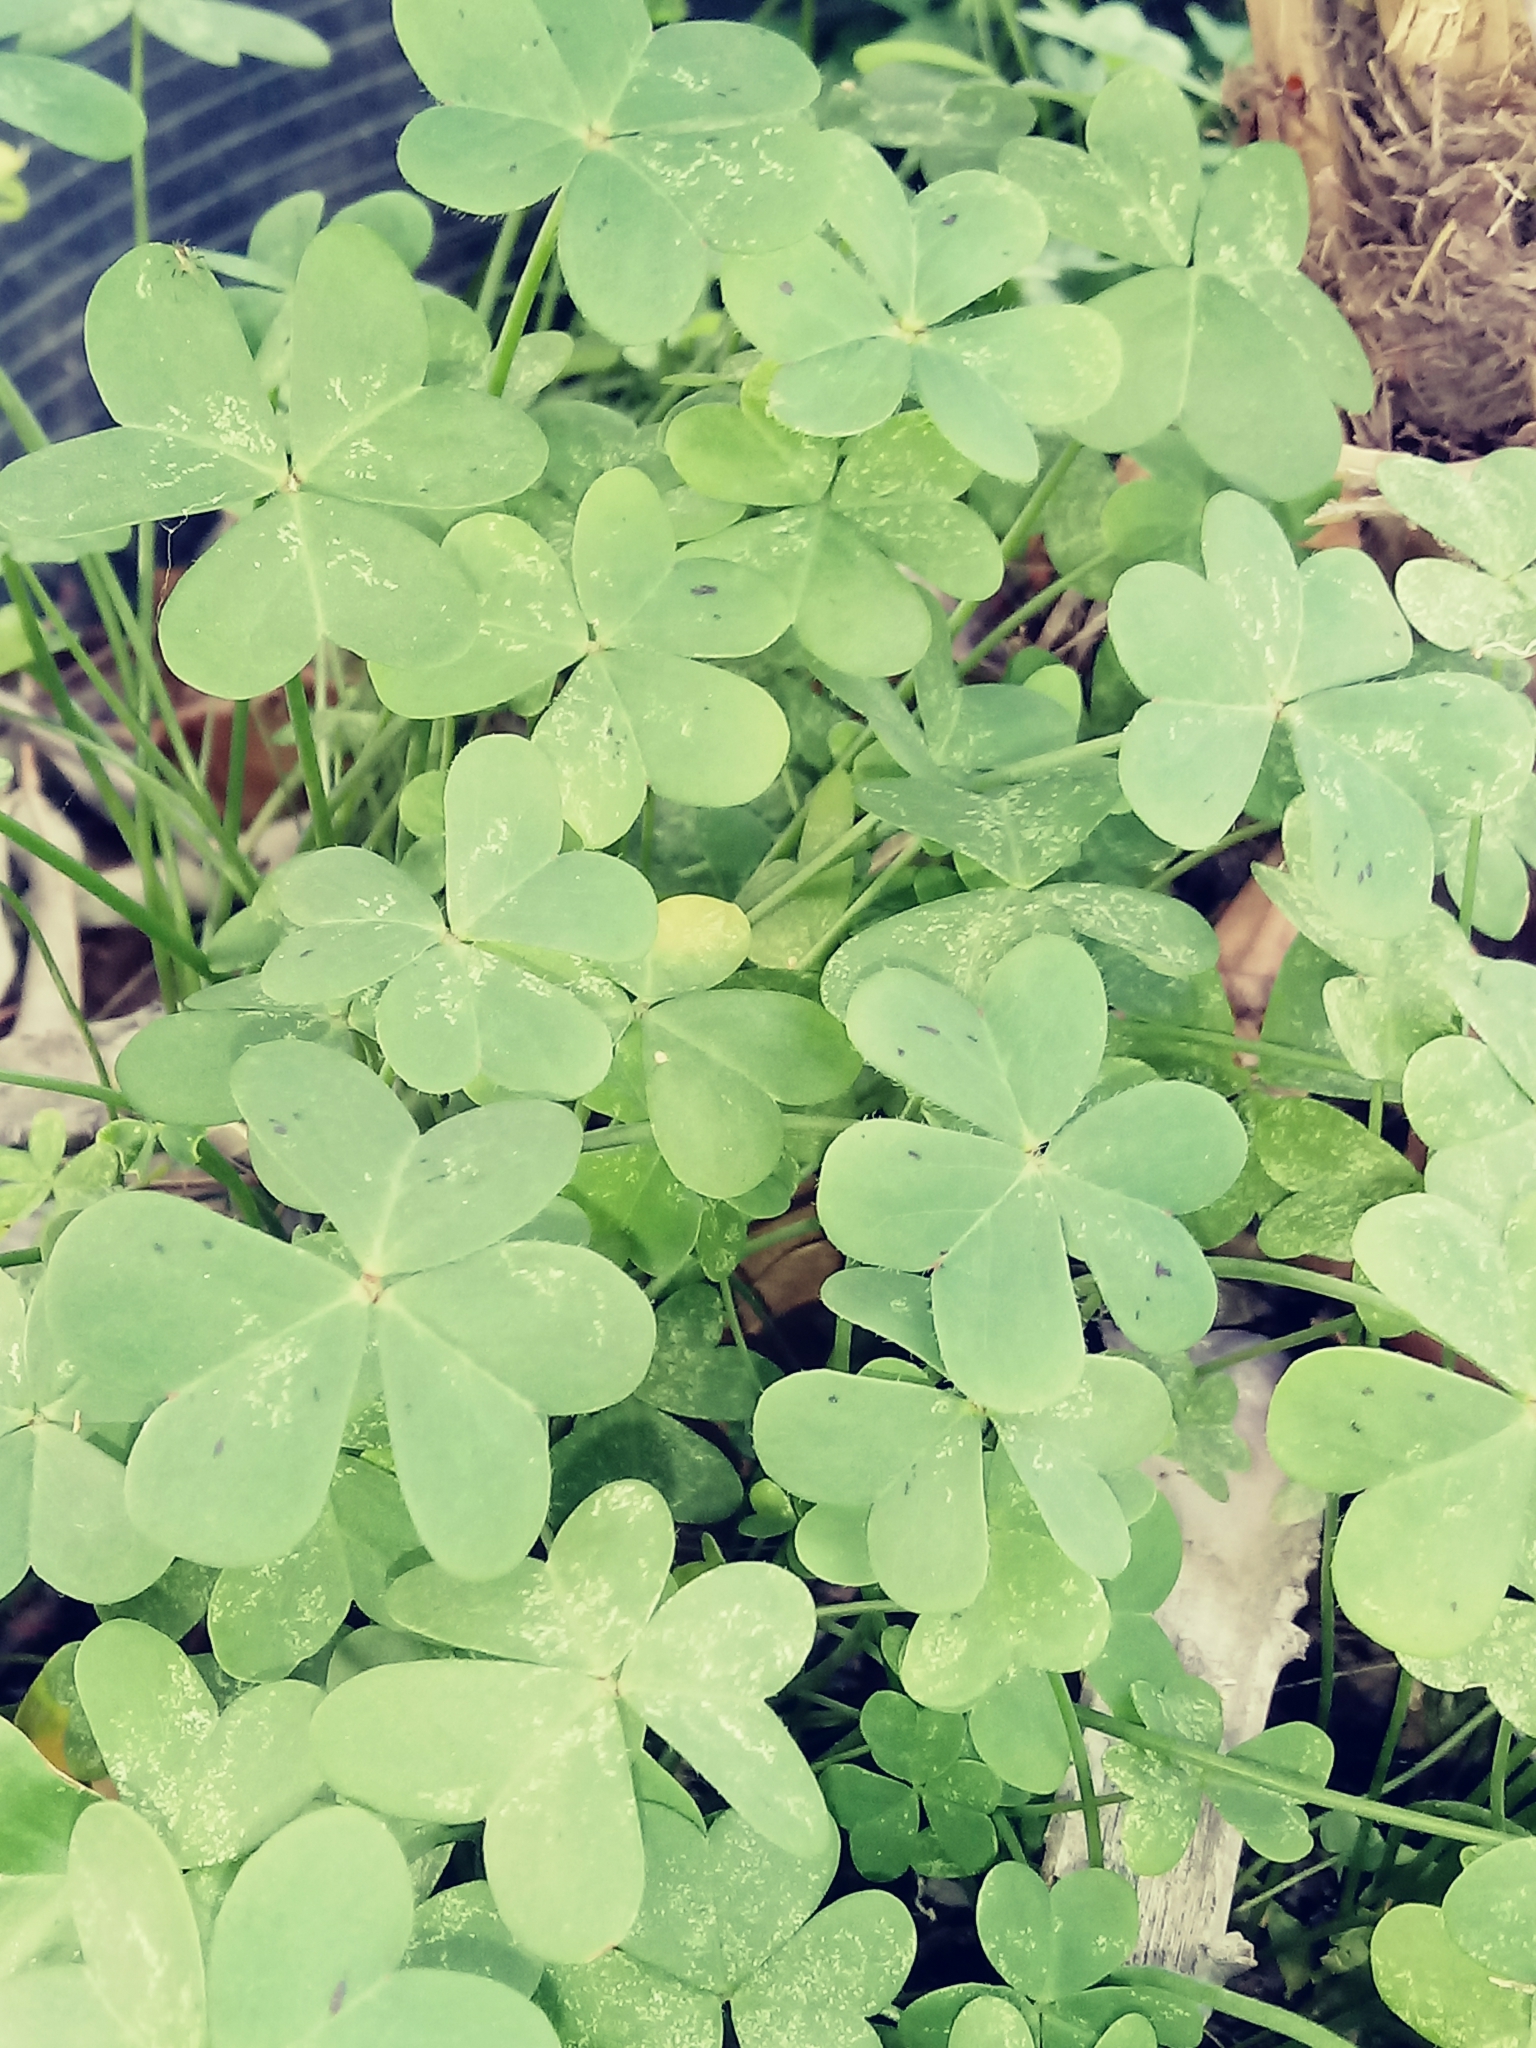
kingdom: Plantae
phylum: Tracheophyta
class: Magnoliopsida
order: Oxalidales
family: Oxalidaceae
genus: Oxalis
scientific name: Oxalis pes-caprae
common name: Bermuda-buttercup
